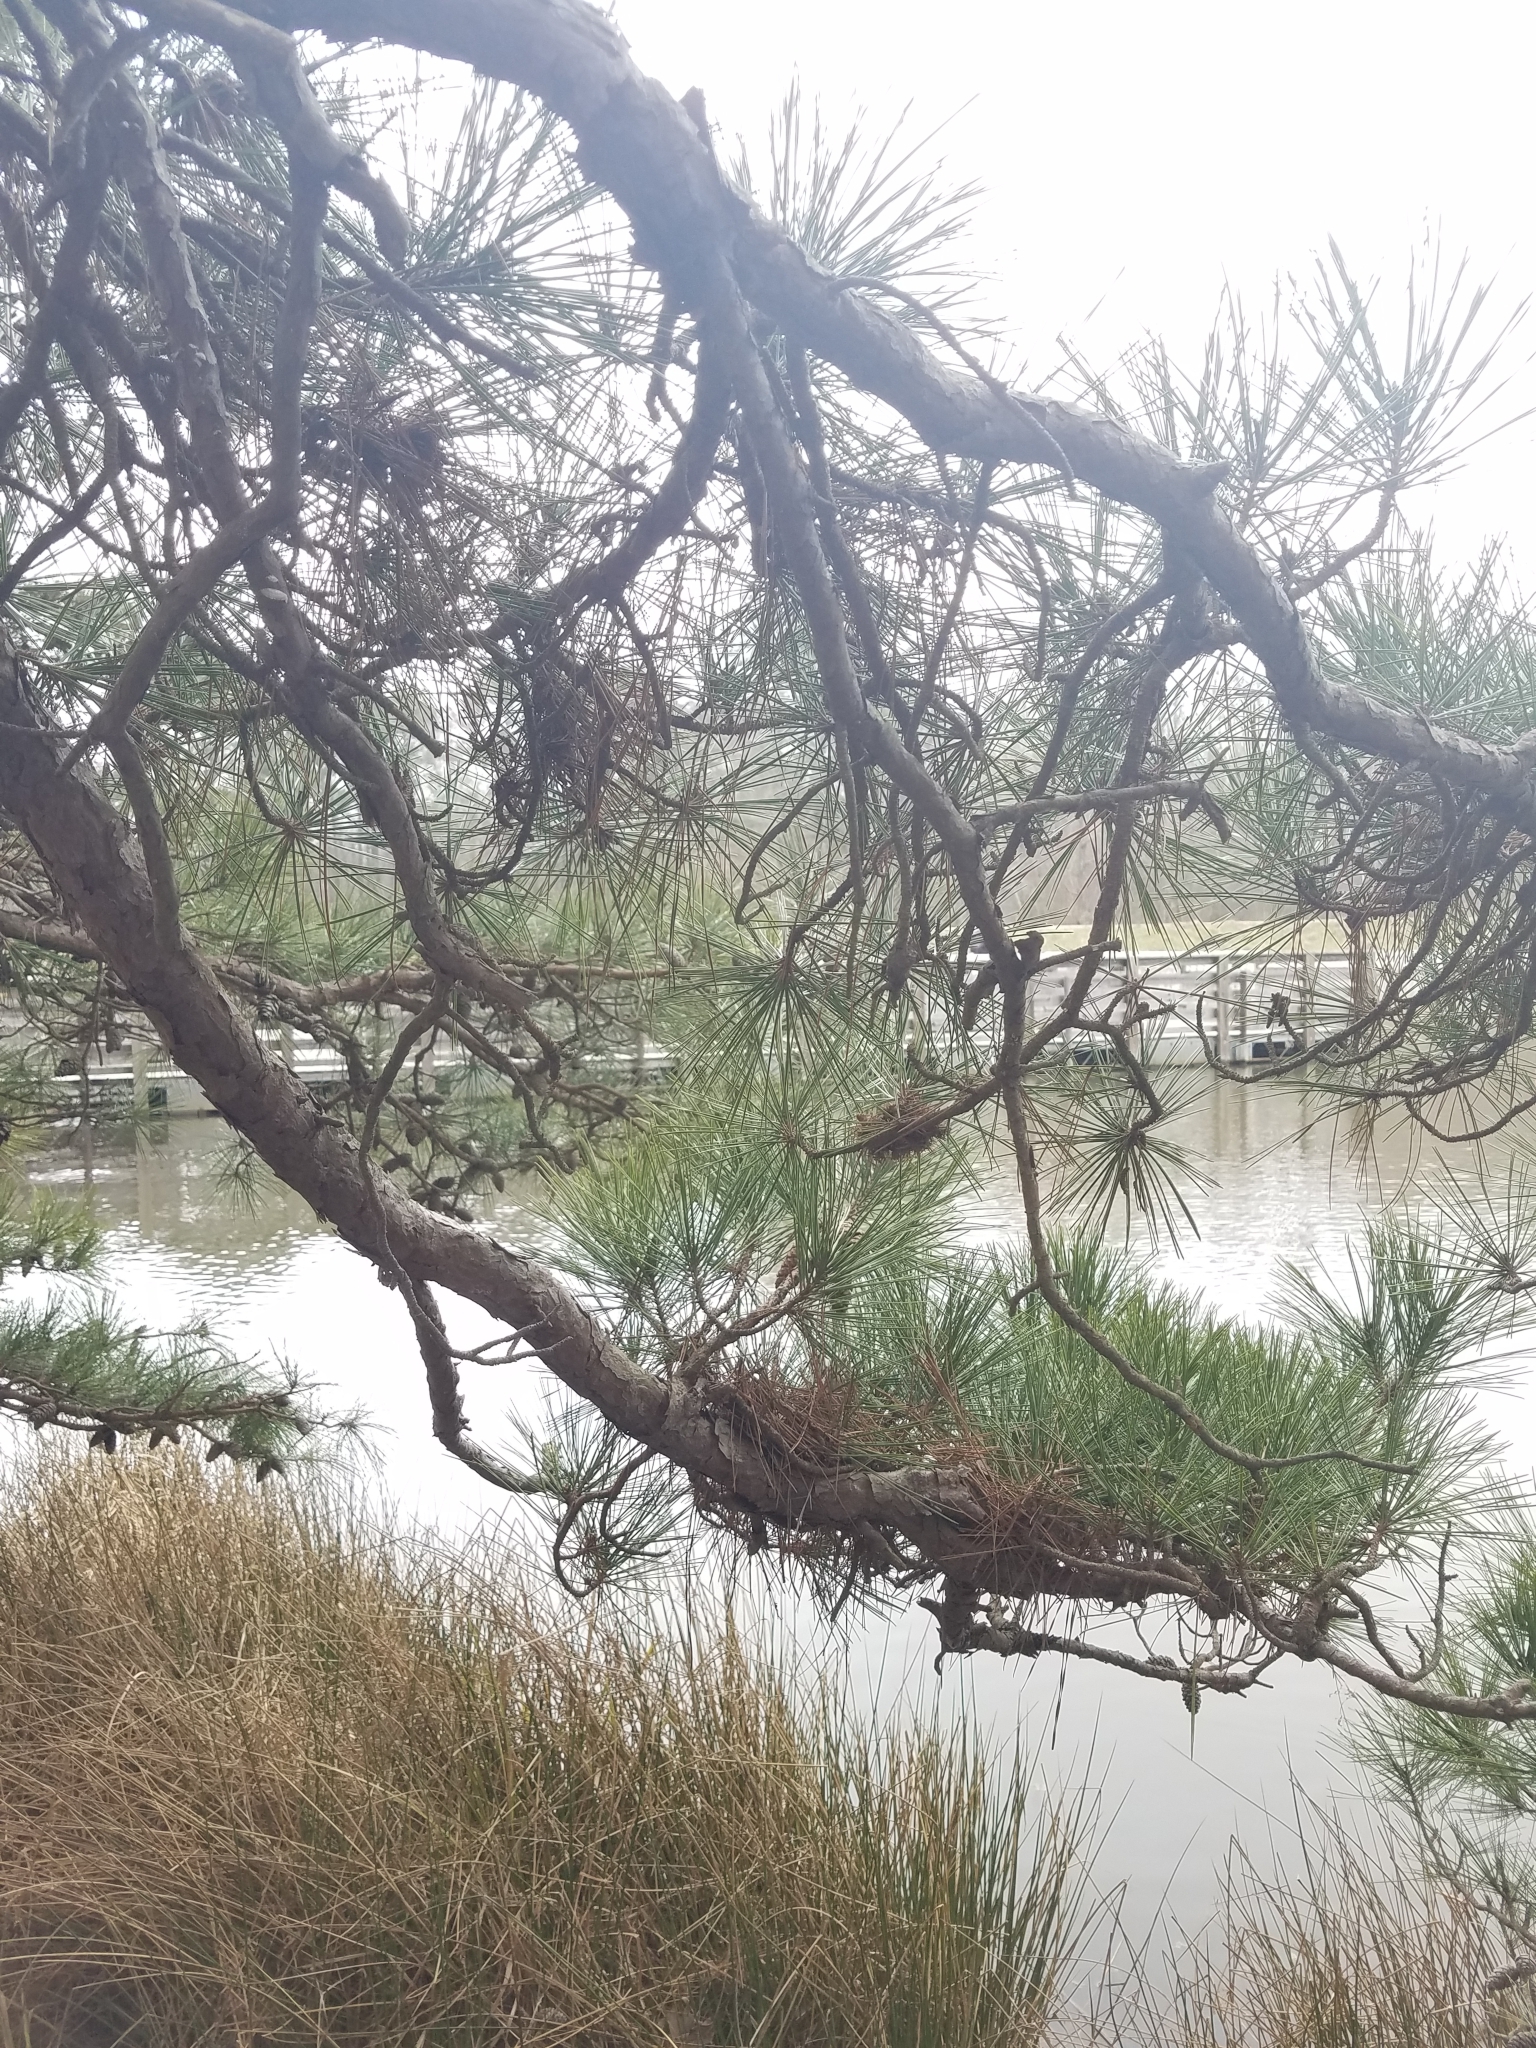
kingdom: Plantae
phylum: Tracheophyta
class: Pinopsida
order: Pinales
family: Pinaceae
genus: Pinus
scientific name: Pinus echinata
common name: Shortleaf pine
